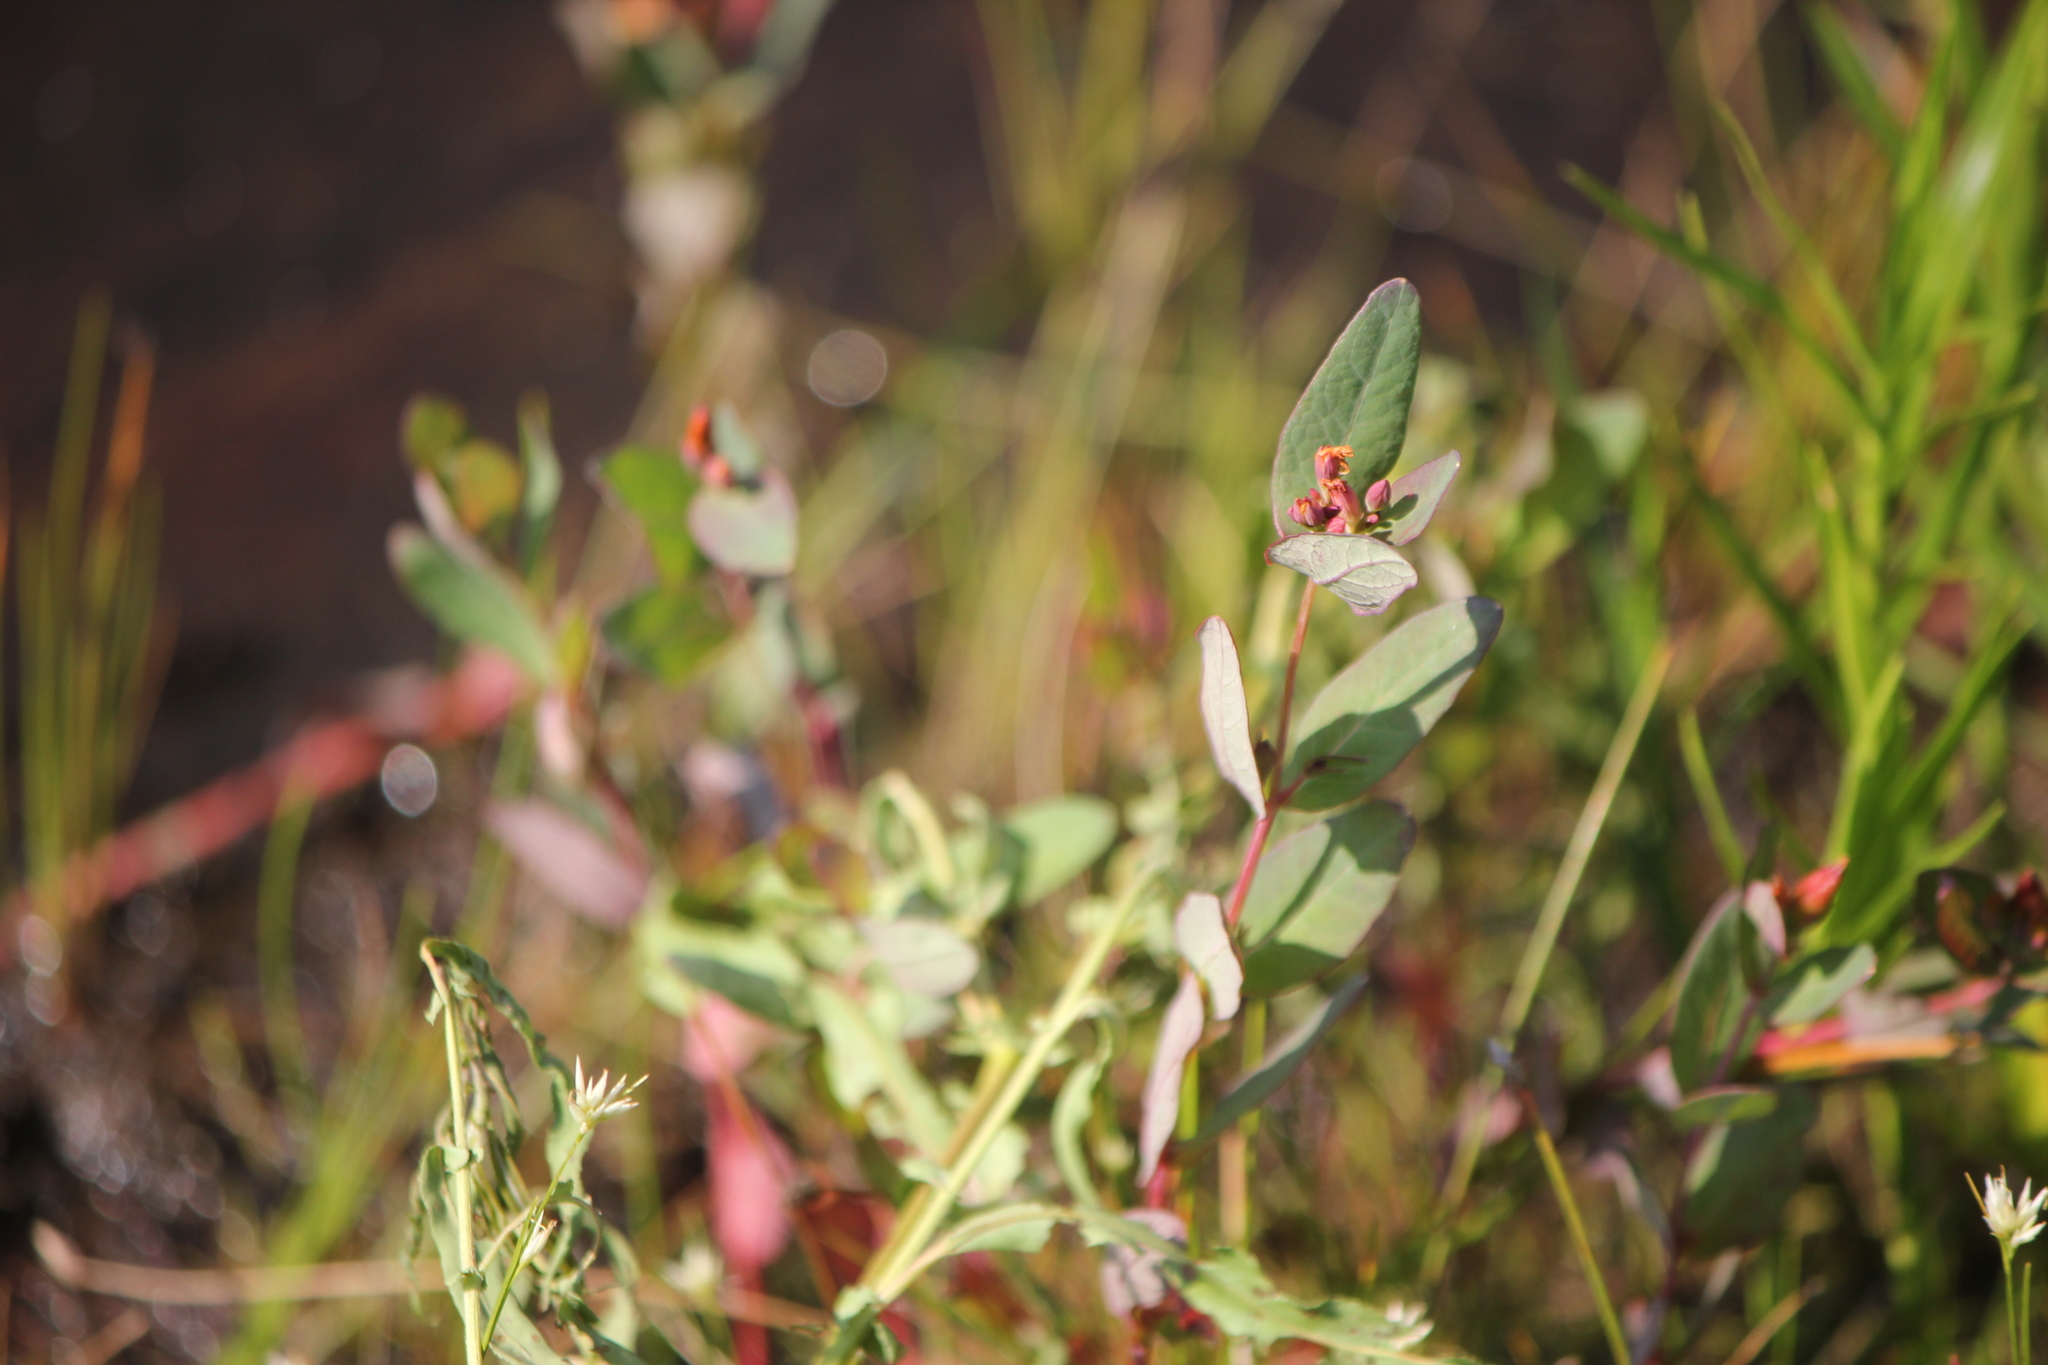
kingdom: Plantae
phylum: Tracheophyta
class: Magnoliopsida
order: Malpighiales
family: Hypericaceae
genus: Triadenum
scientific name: Triadenum fraseri
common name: Fraser's marsh st. johnswort
